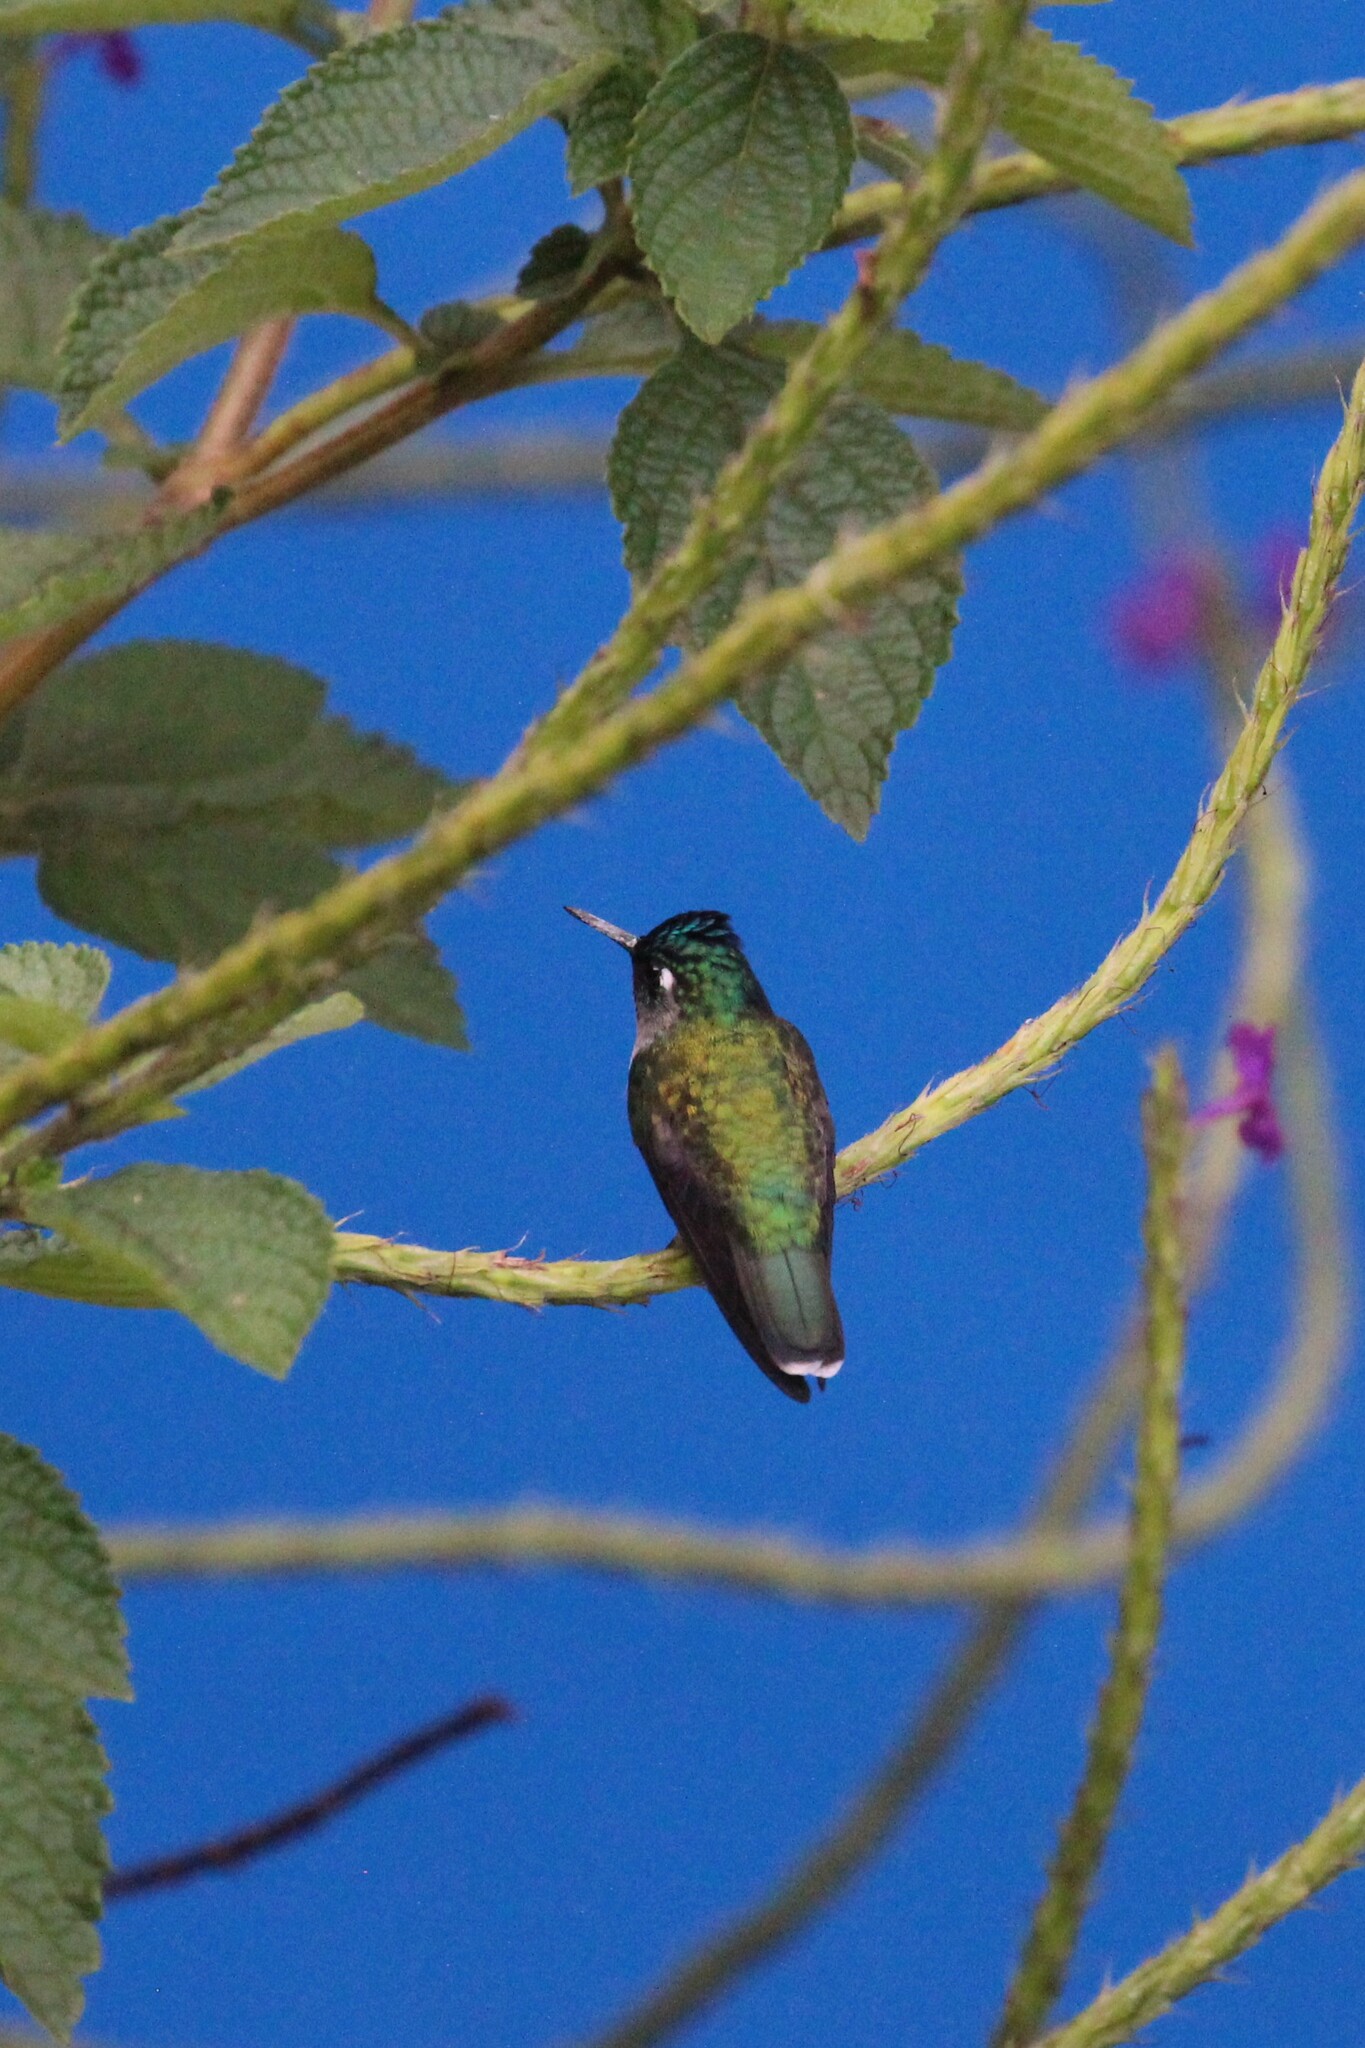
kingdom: Animalia
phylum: Chordata
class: Aves
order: Apodiformes
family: Trochilidae
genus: Klais
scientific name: Klais guimeti
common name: Violet-headed hummingbird
